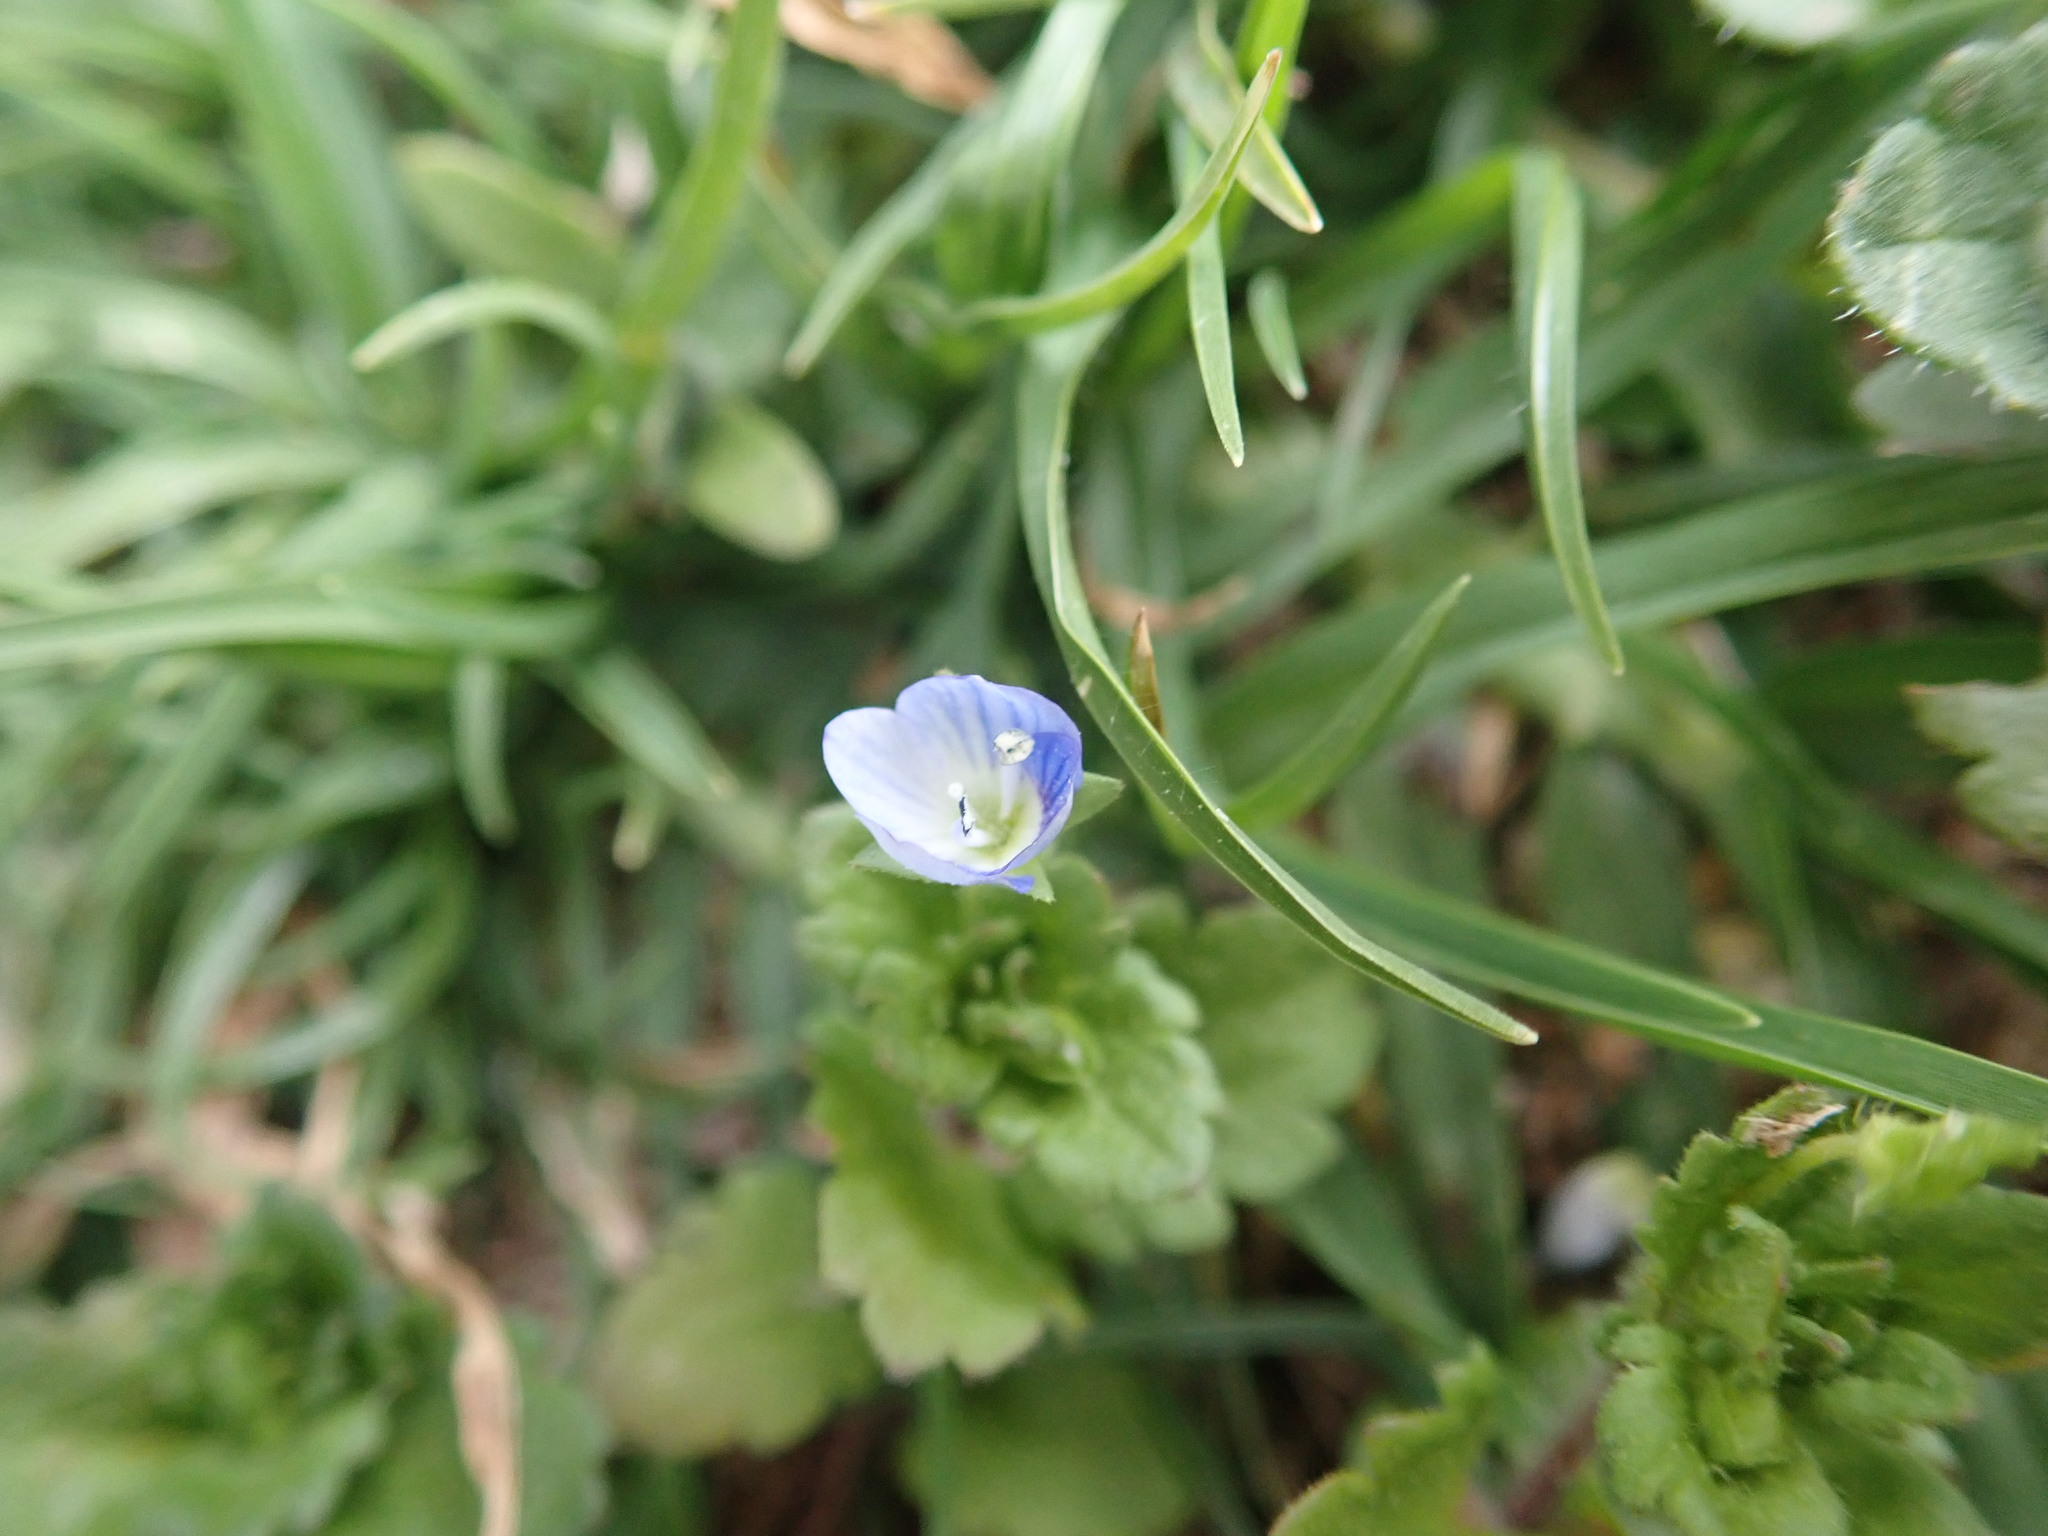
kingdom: Plantae
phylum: Tracheophyta
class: Magnoliopsida
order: Lamiales
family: Plantaginaceae
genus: Veronica
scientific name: Veronica persica
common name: Common field-speedwell
